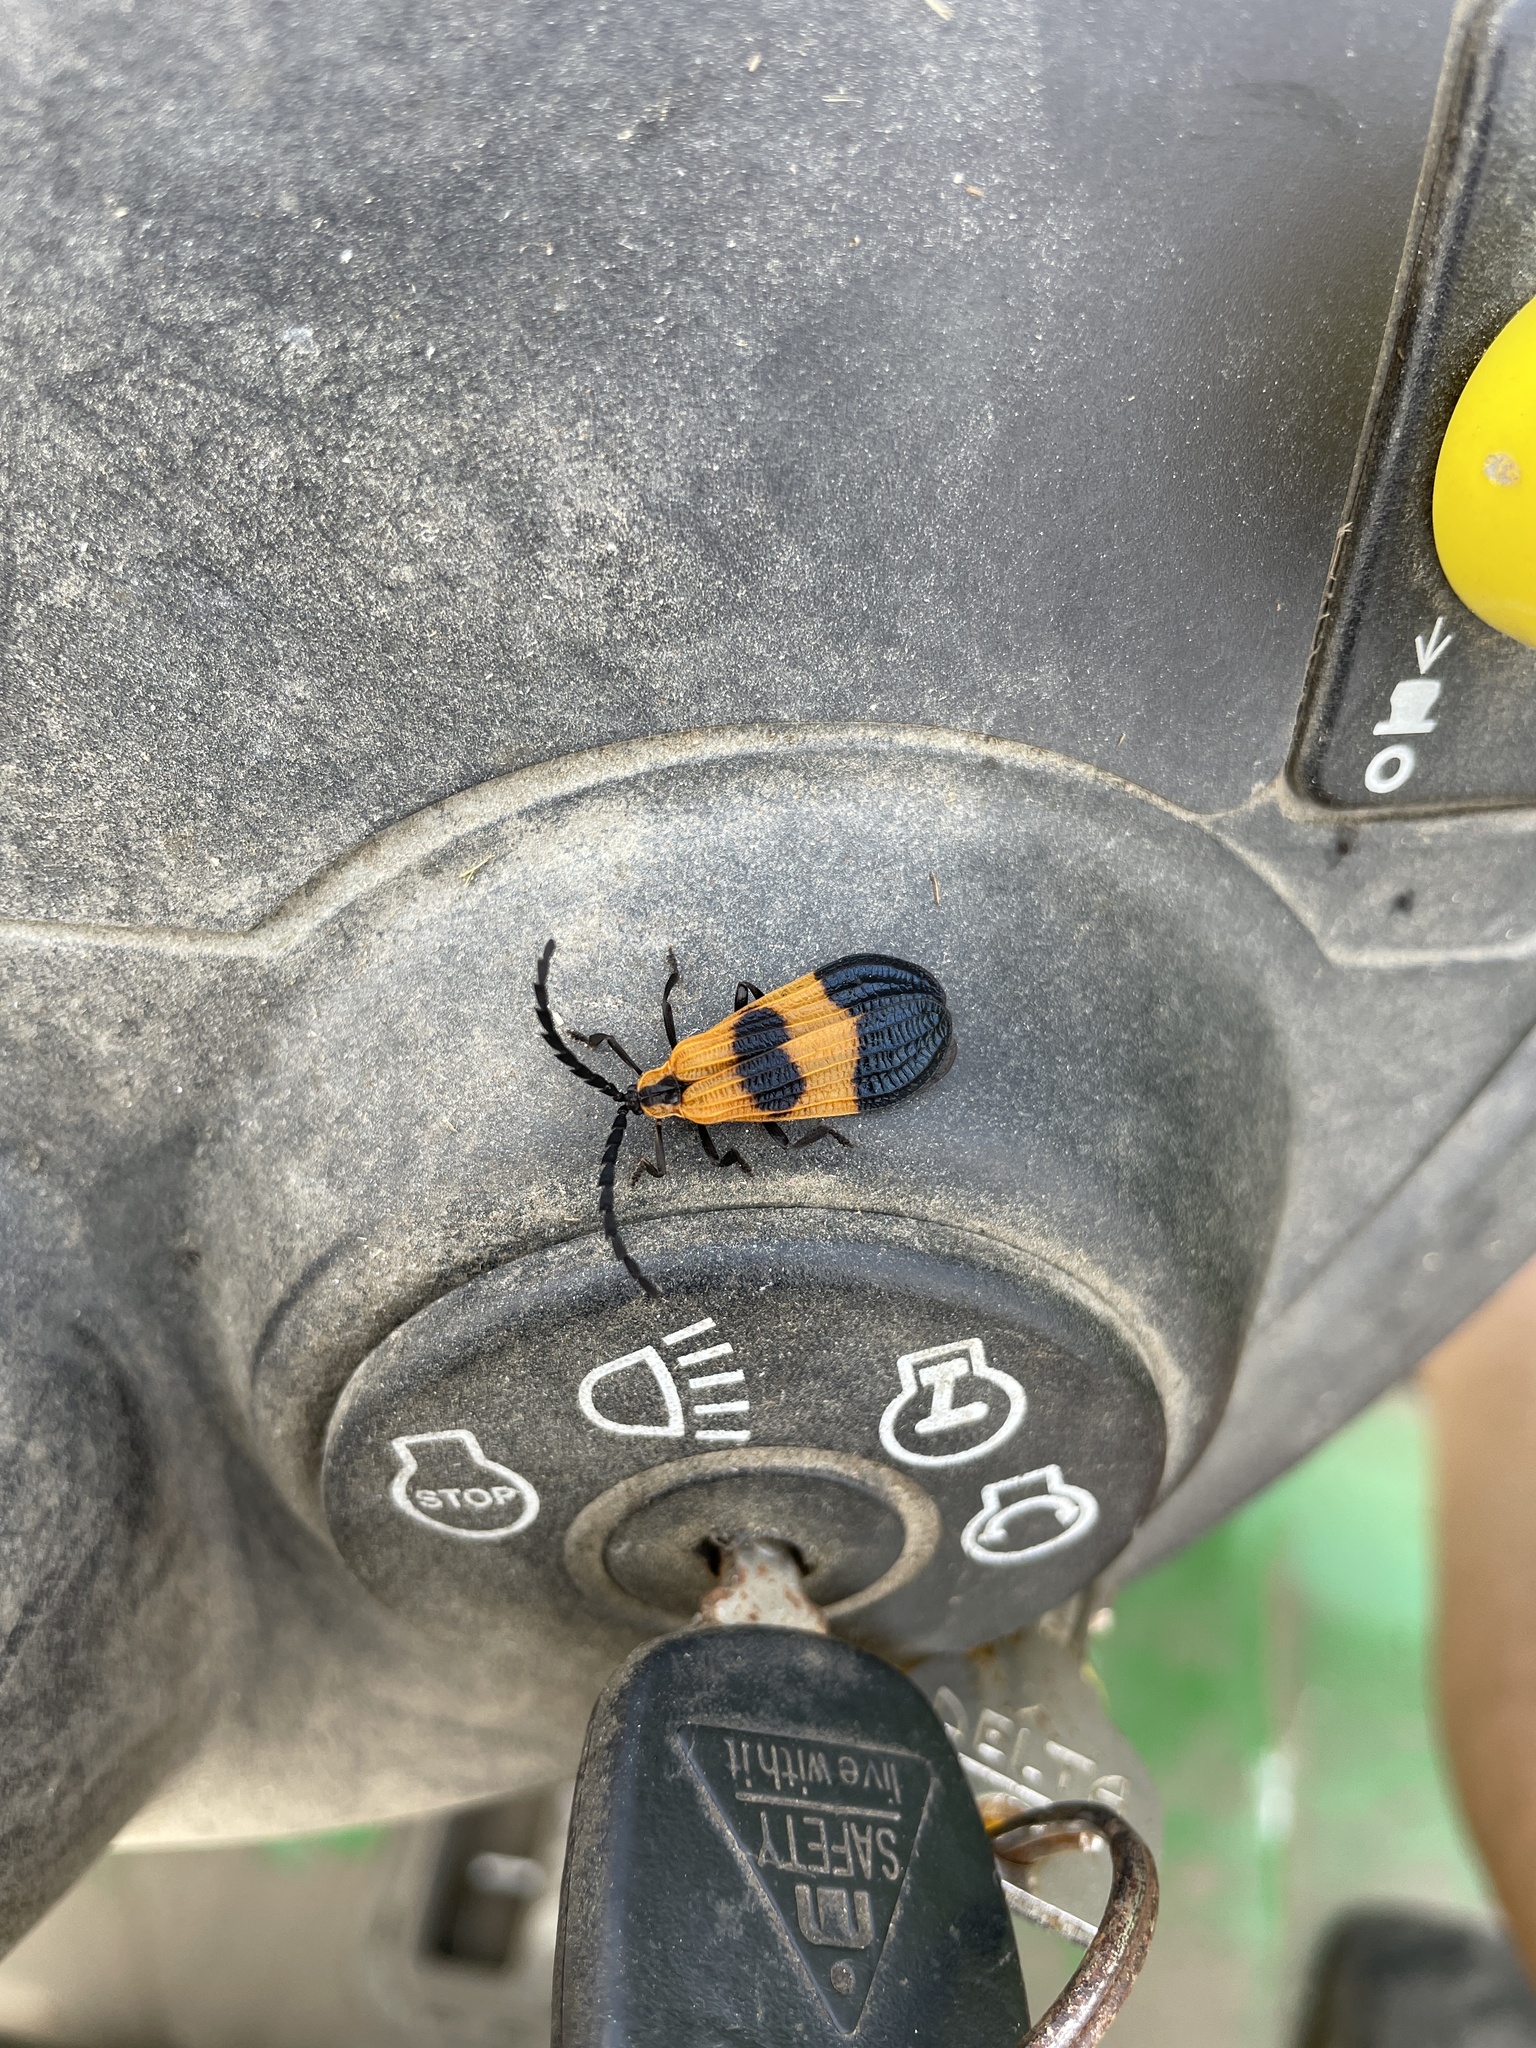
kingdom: Animalia
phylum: Arthropoda
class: Insecta
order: Coleoptera
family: Lycidae
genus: Calopteron
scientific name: Calopteron terminale
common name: End band net-winged beetle
